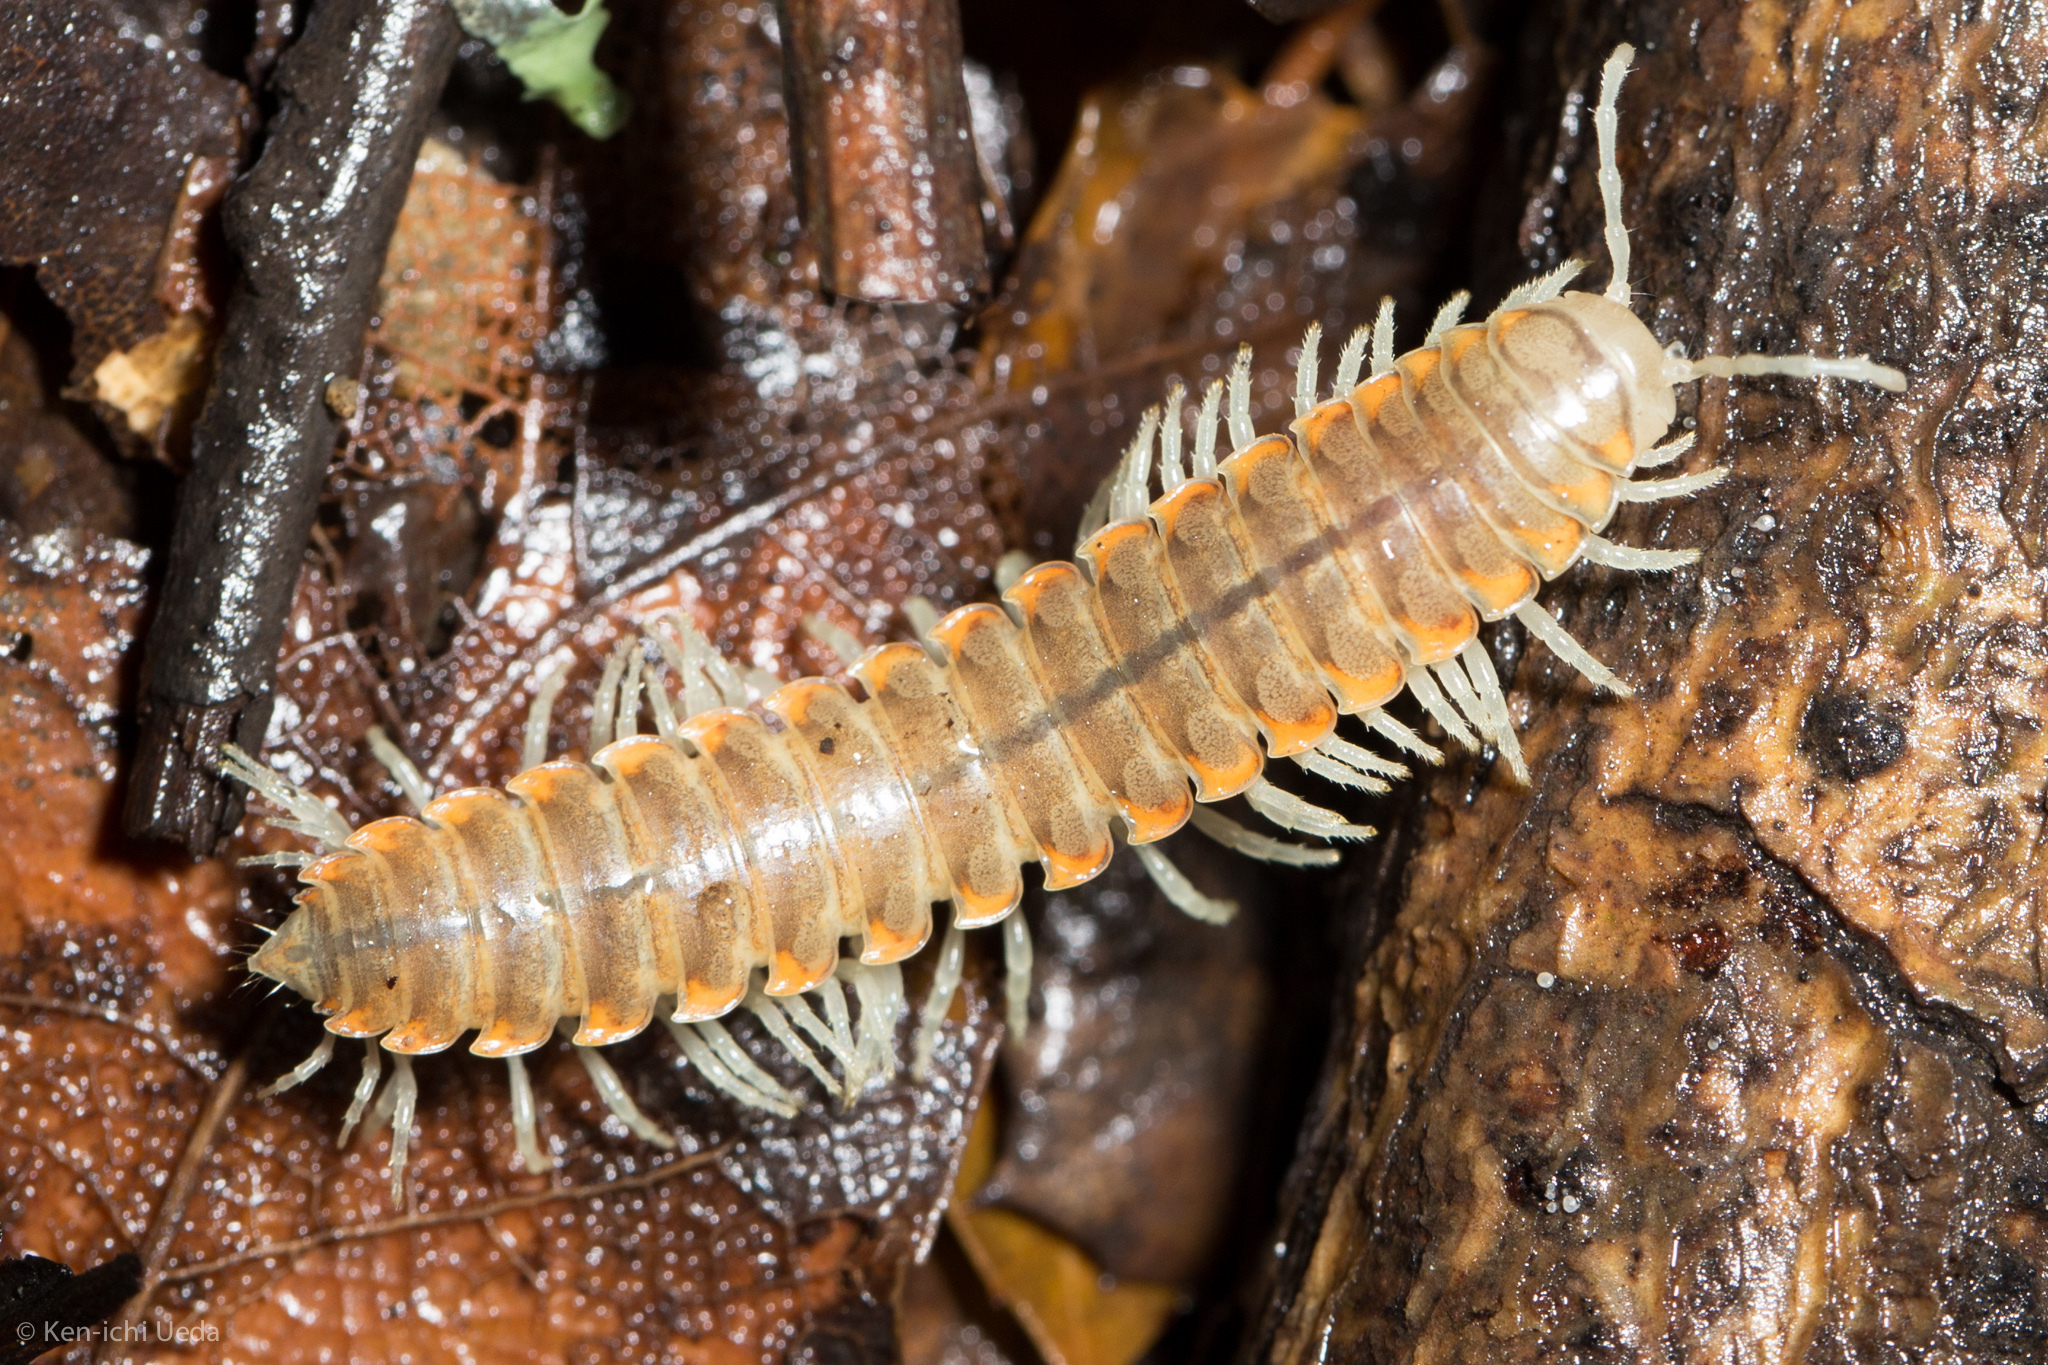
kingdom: Animalia
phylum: Arthropoda
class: Diplopoda
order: Polydesmida
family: Xystodesmidae
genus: Xystocheir
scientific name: Xystocheir dissecta
